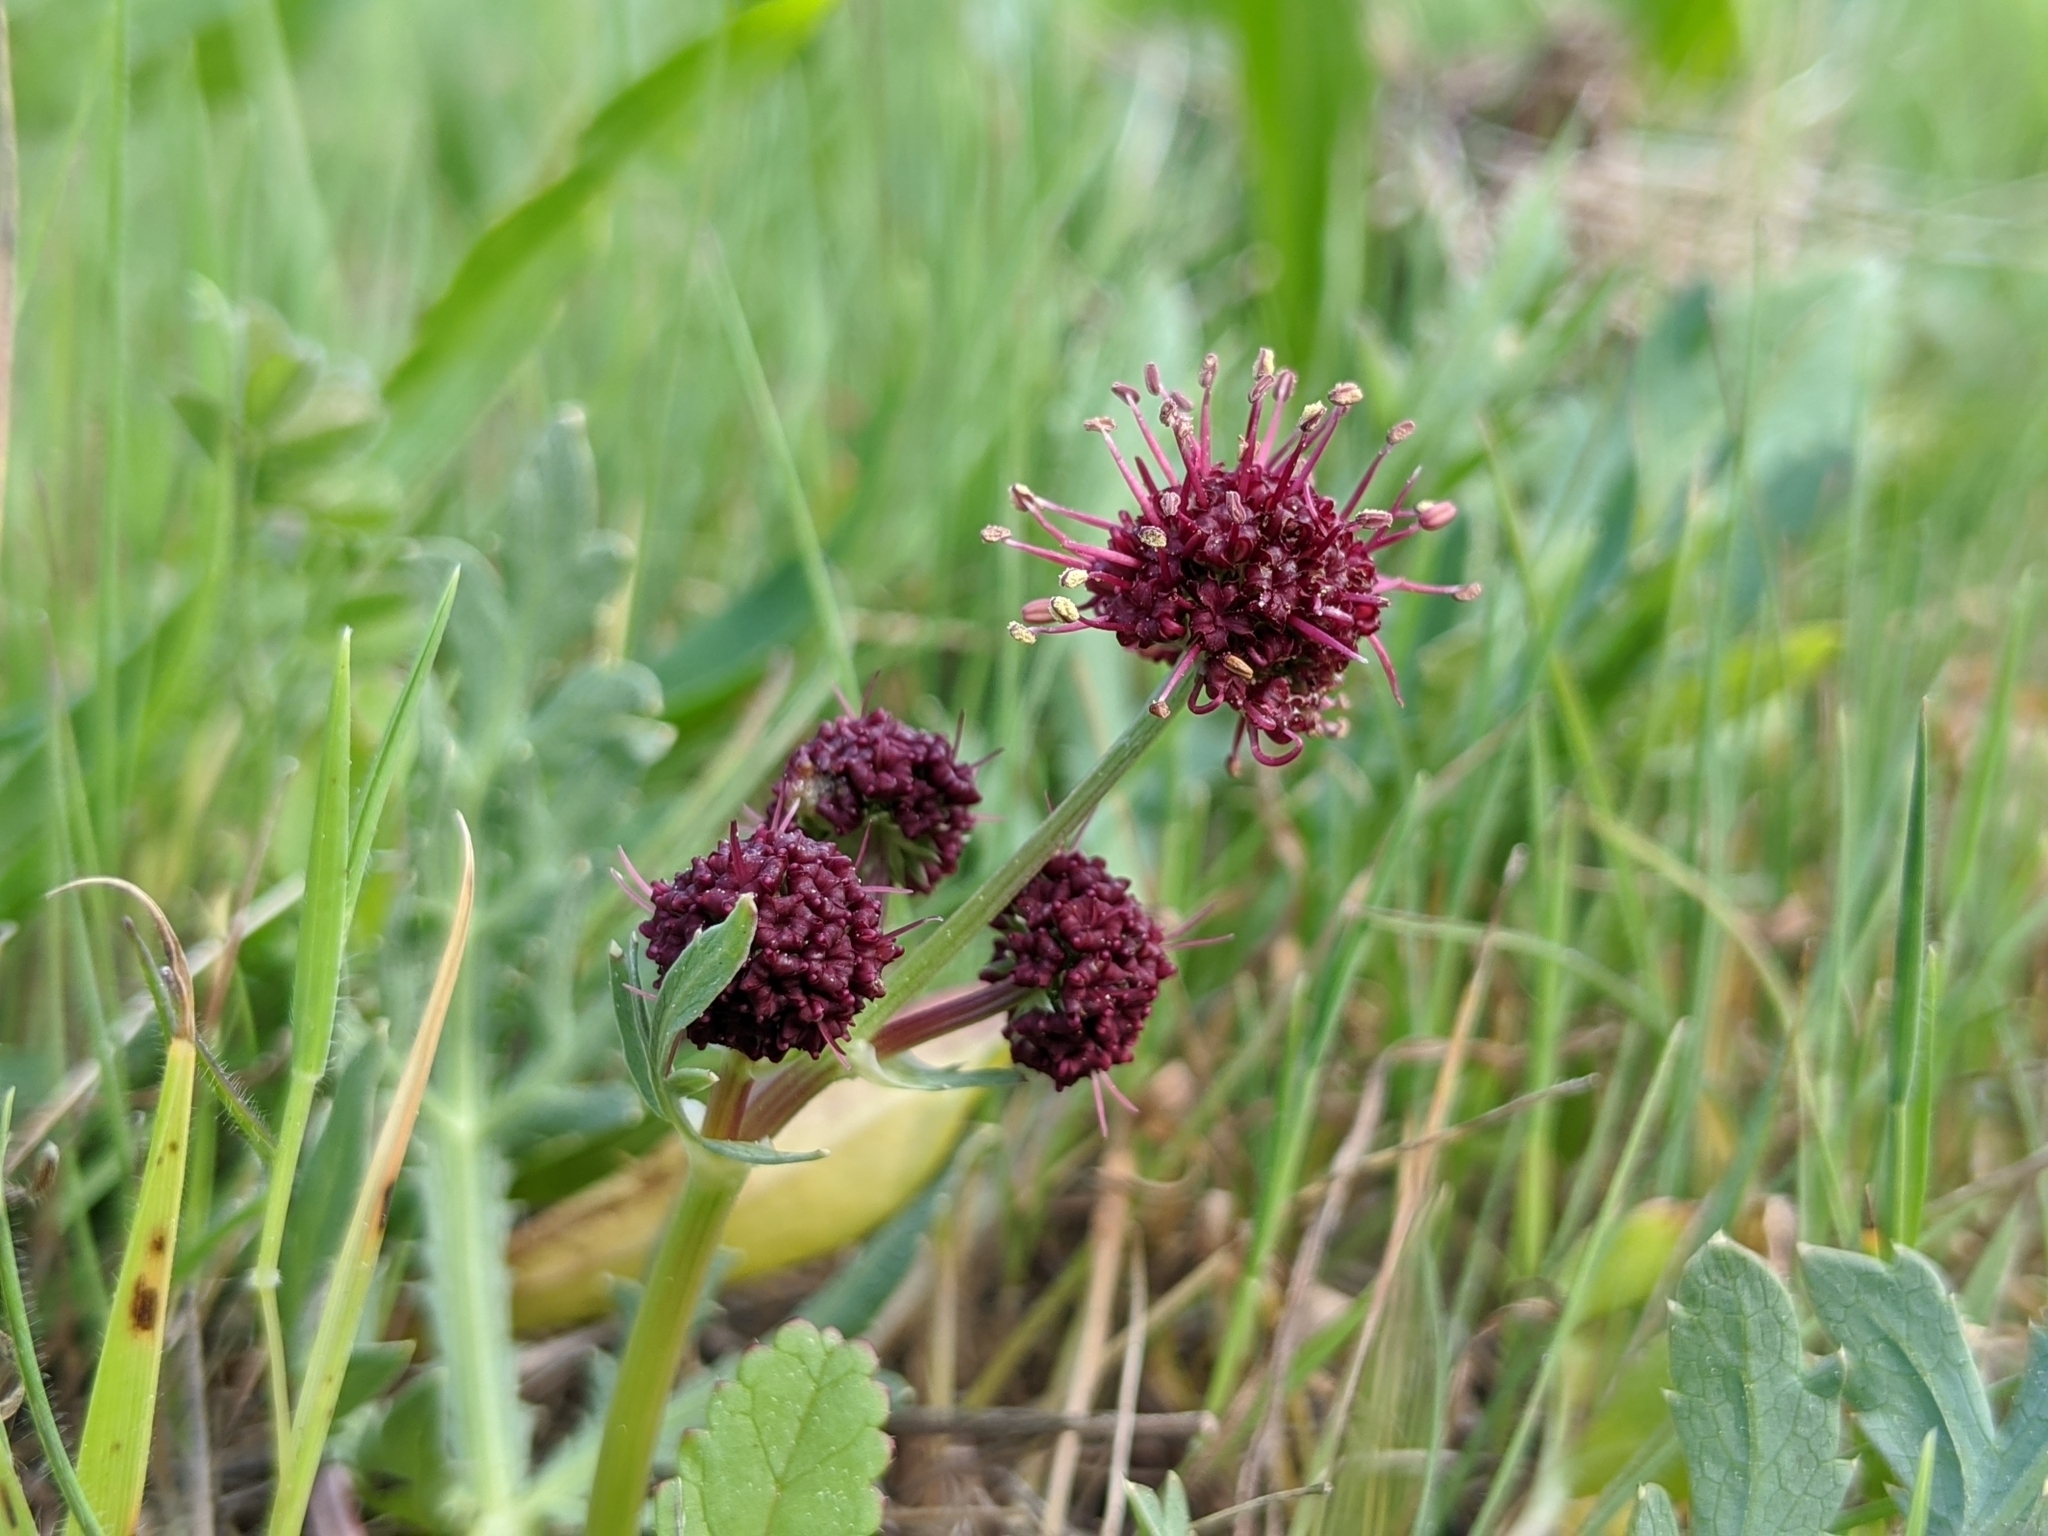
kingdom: Plantae
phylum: Tracheophyta
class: Magnoliopsida
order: Apiales
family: Apiaceae
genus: Sanicula
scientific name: Sanicula bipinnatifida
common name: Shoe-buttons
